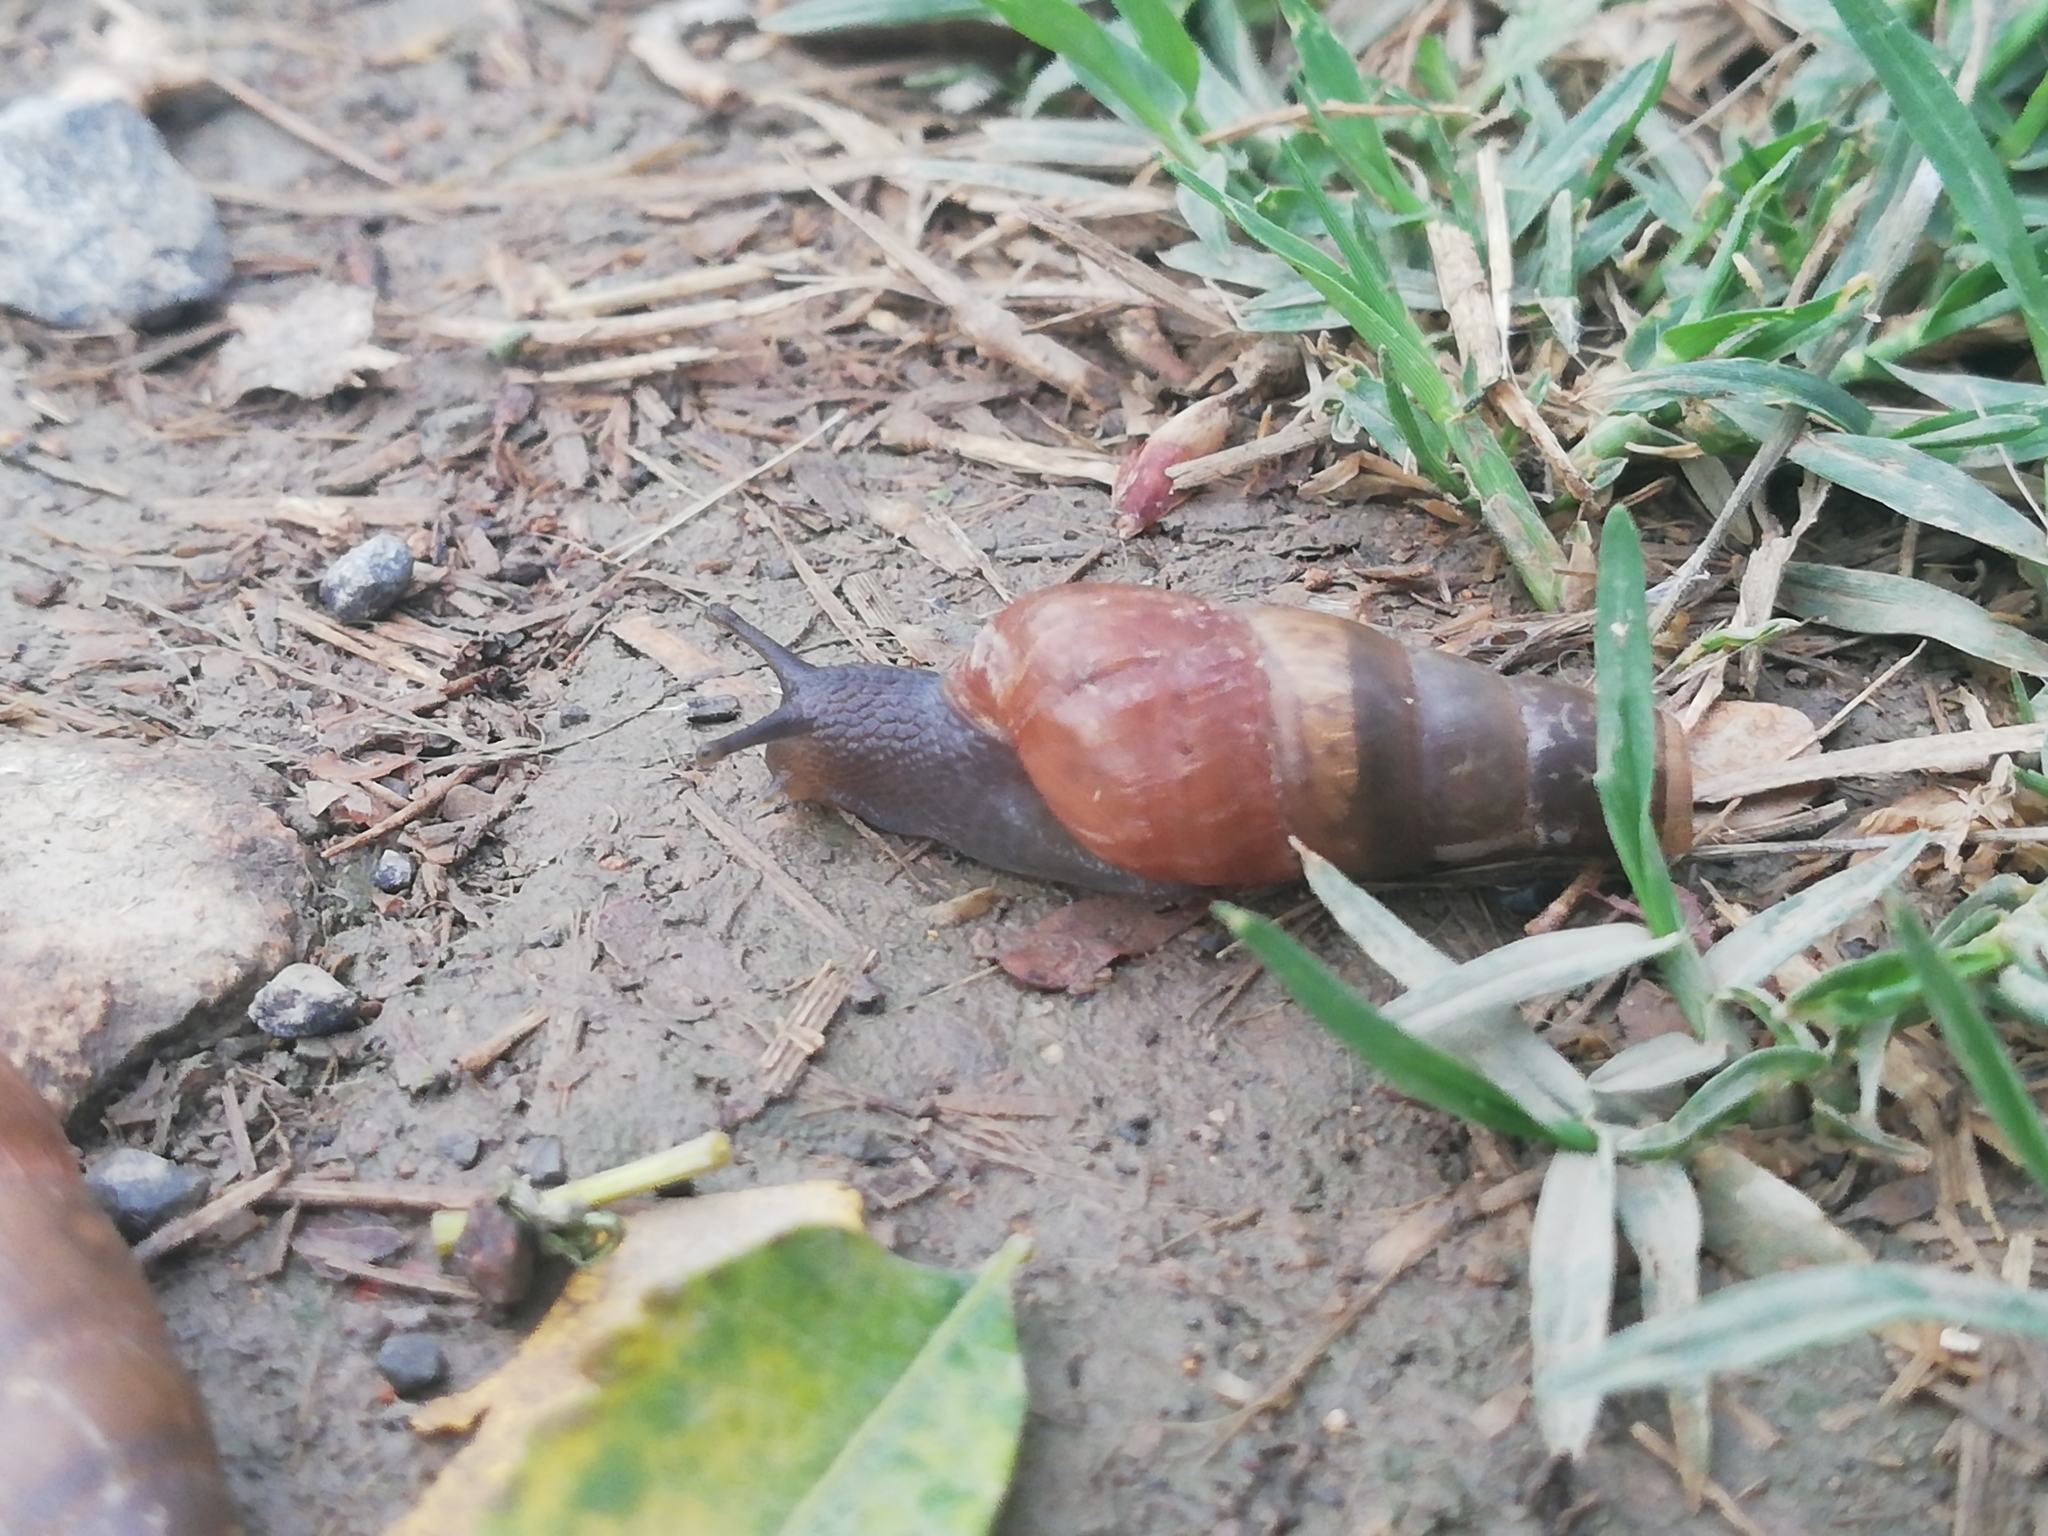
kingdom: Animalia
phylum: Mollusca
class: Gastropoda
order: Stylommatophora
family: Achatinidae
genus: Rumina
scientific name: Rumina decollata
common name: Decollate snail
